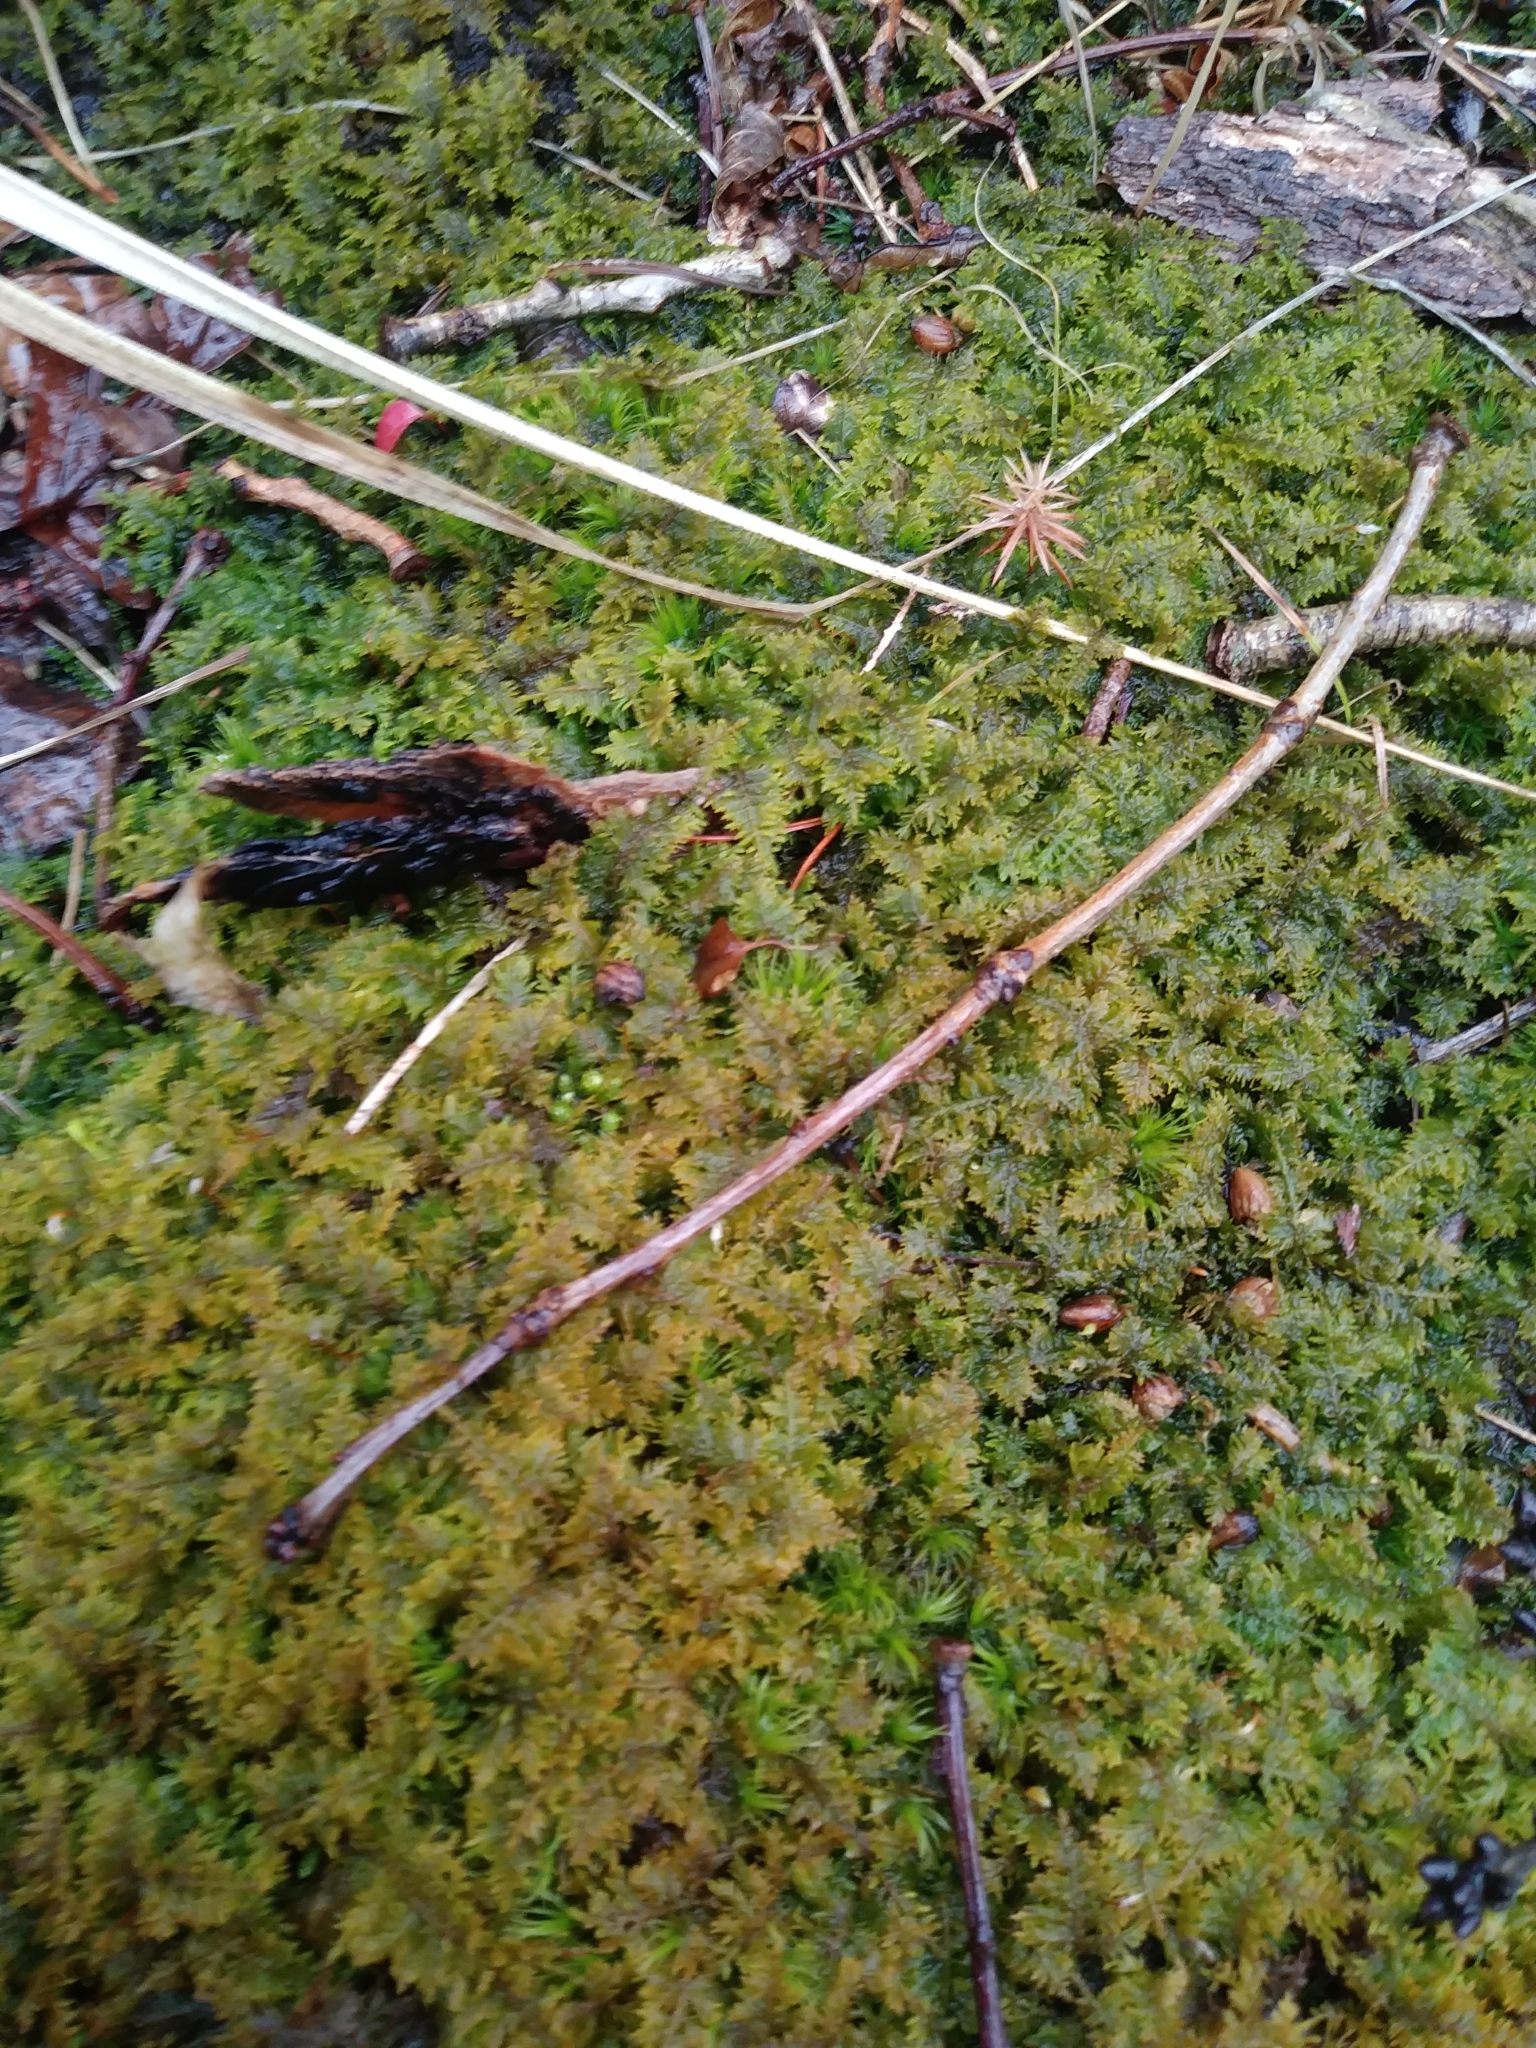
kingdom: Plantae
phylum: Bryophyta
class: Bryopsida
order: Hypnales
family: Thuidiaceae
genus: Thuidium
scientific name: Thuidium delicatulum
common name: Delicate fern moss
